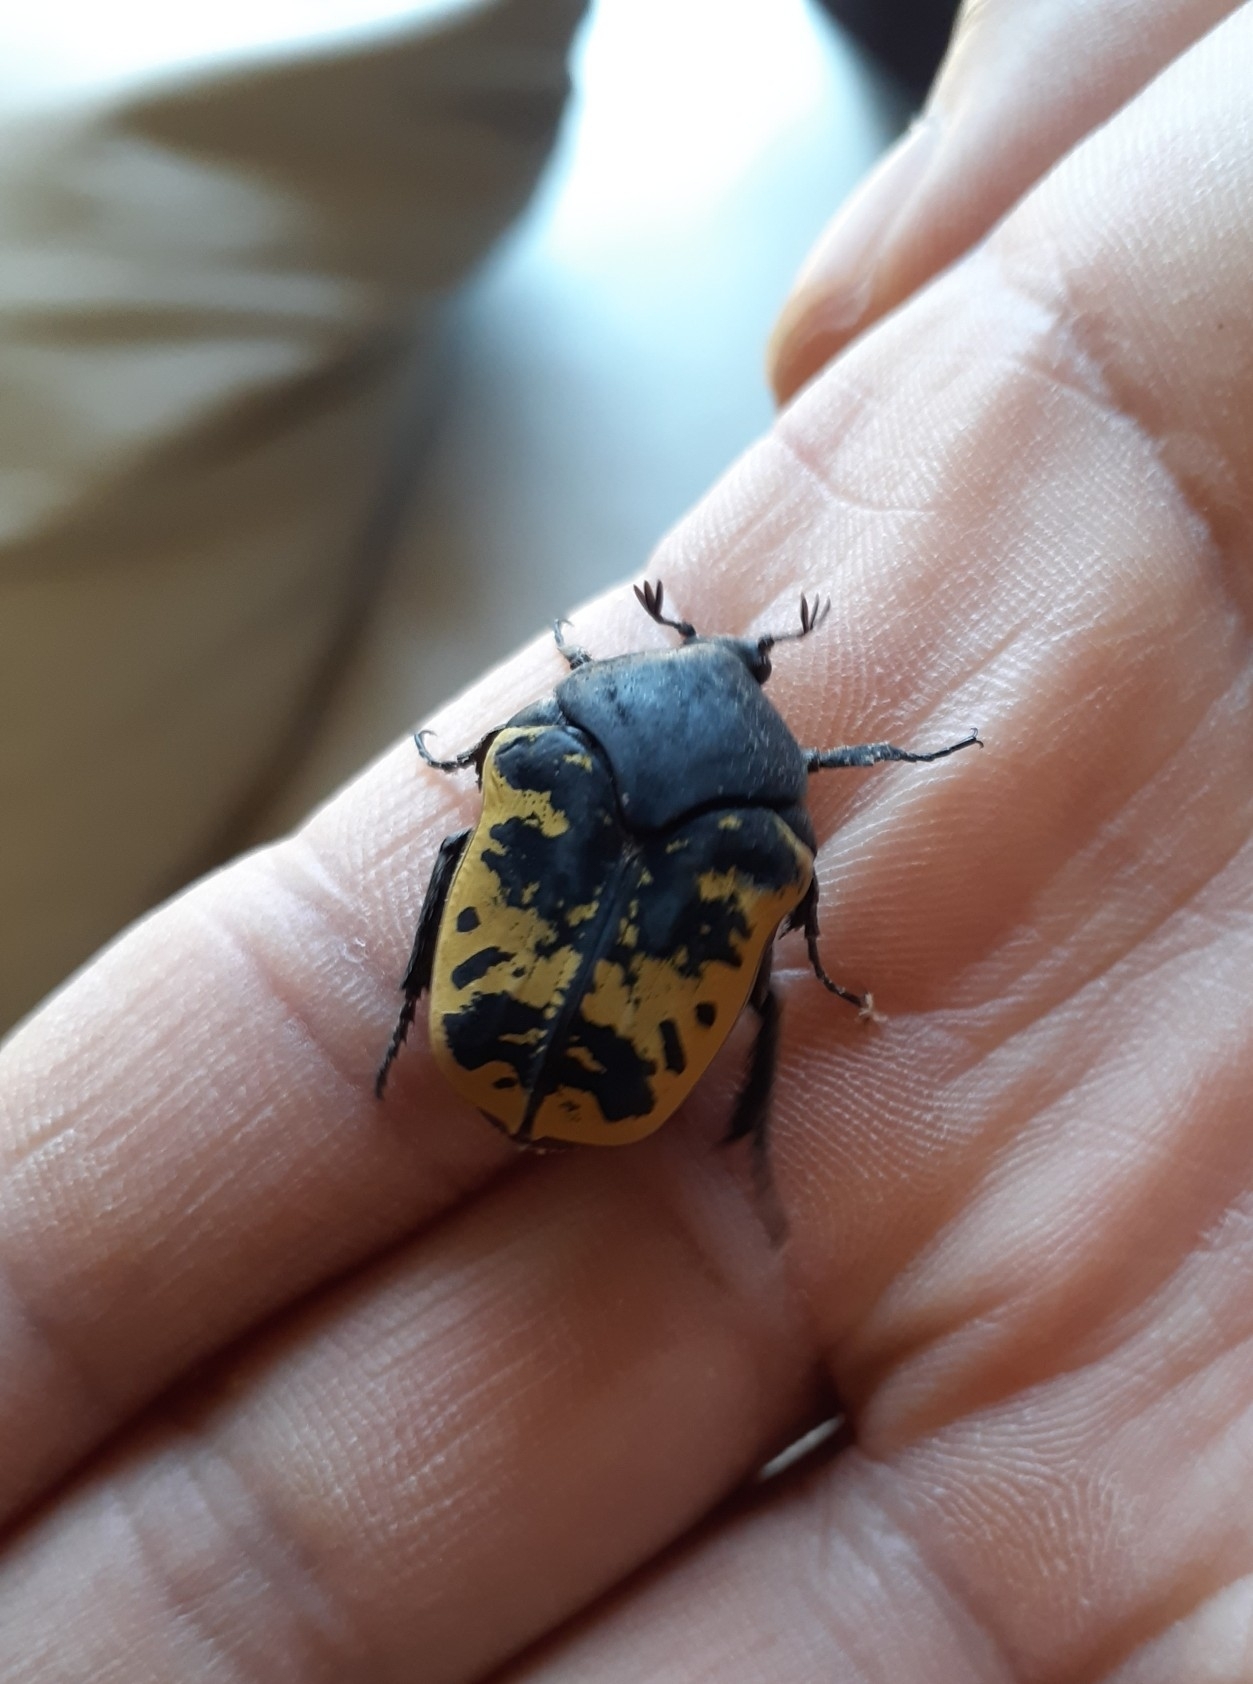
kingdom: Animalia
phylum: Arthropoda
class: Insecta
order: Coleoptera
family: Scarabaeidae
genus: Gymnetis
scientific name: Gymnetis merops
